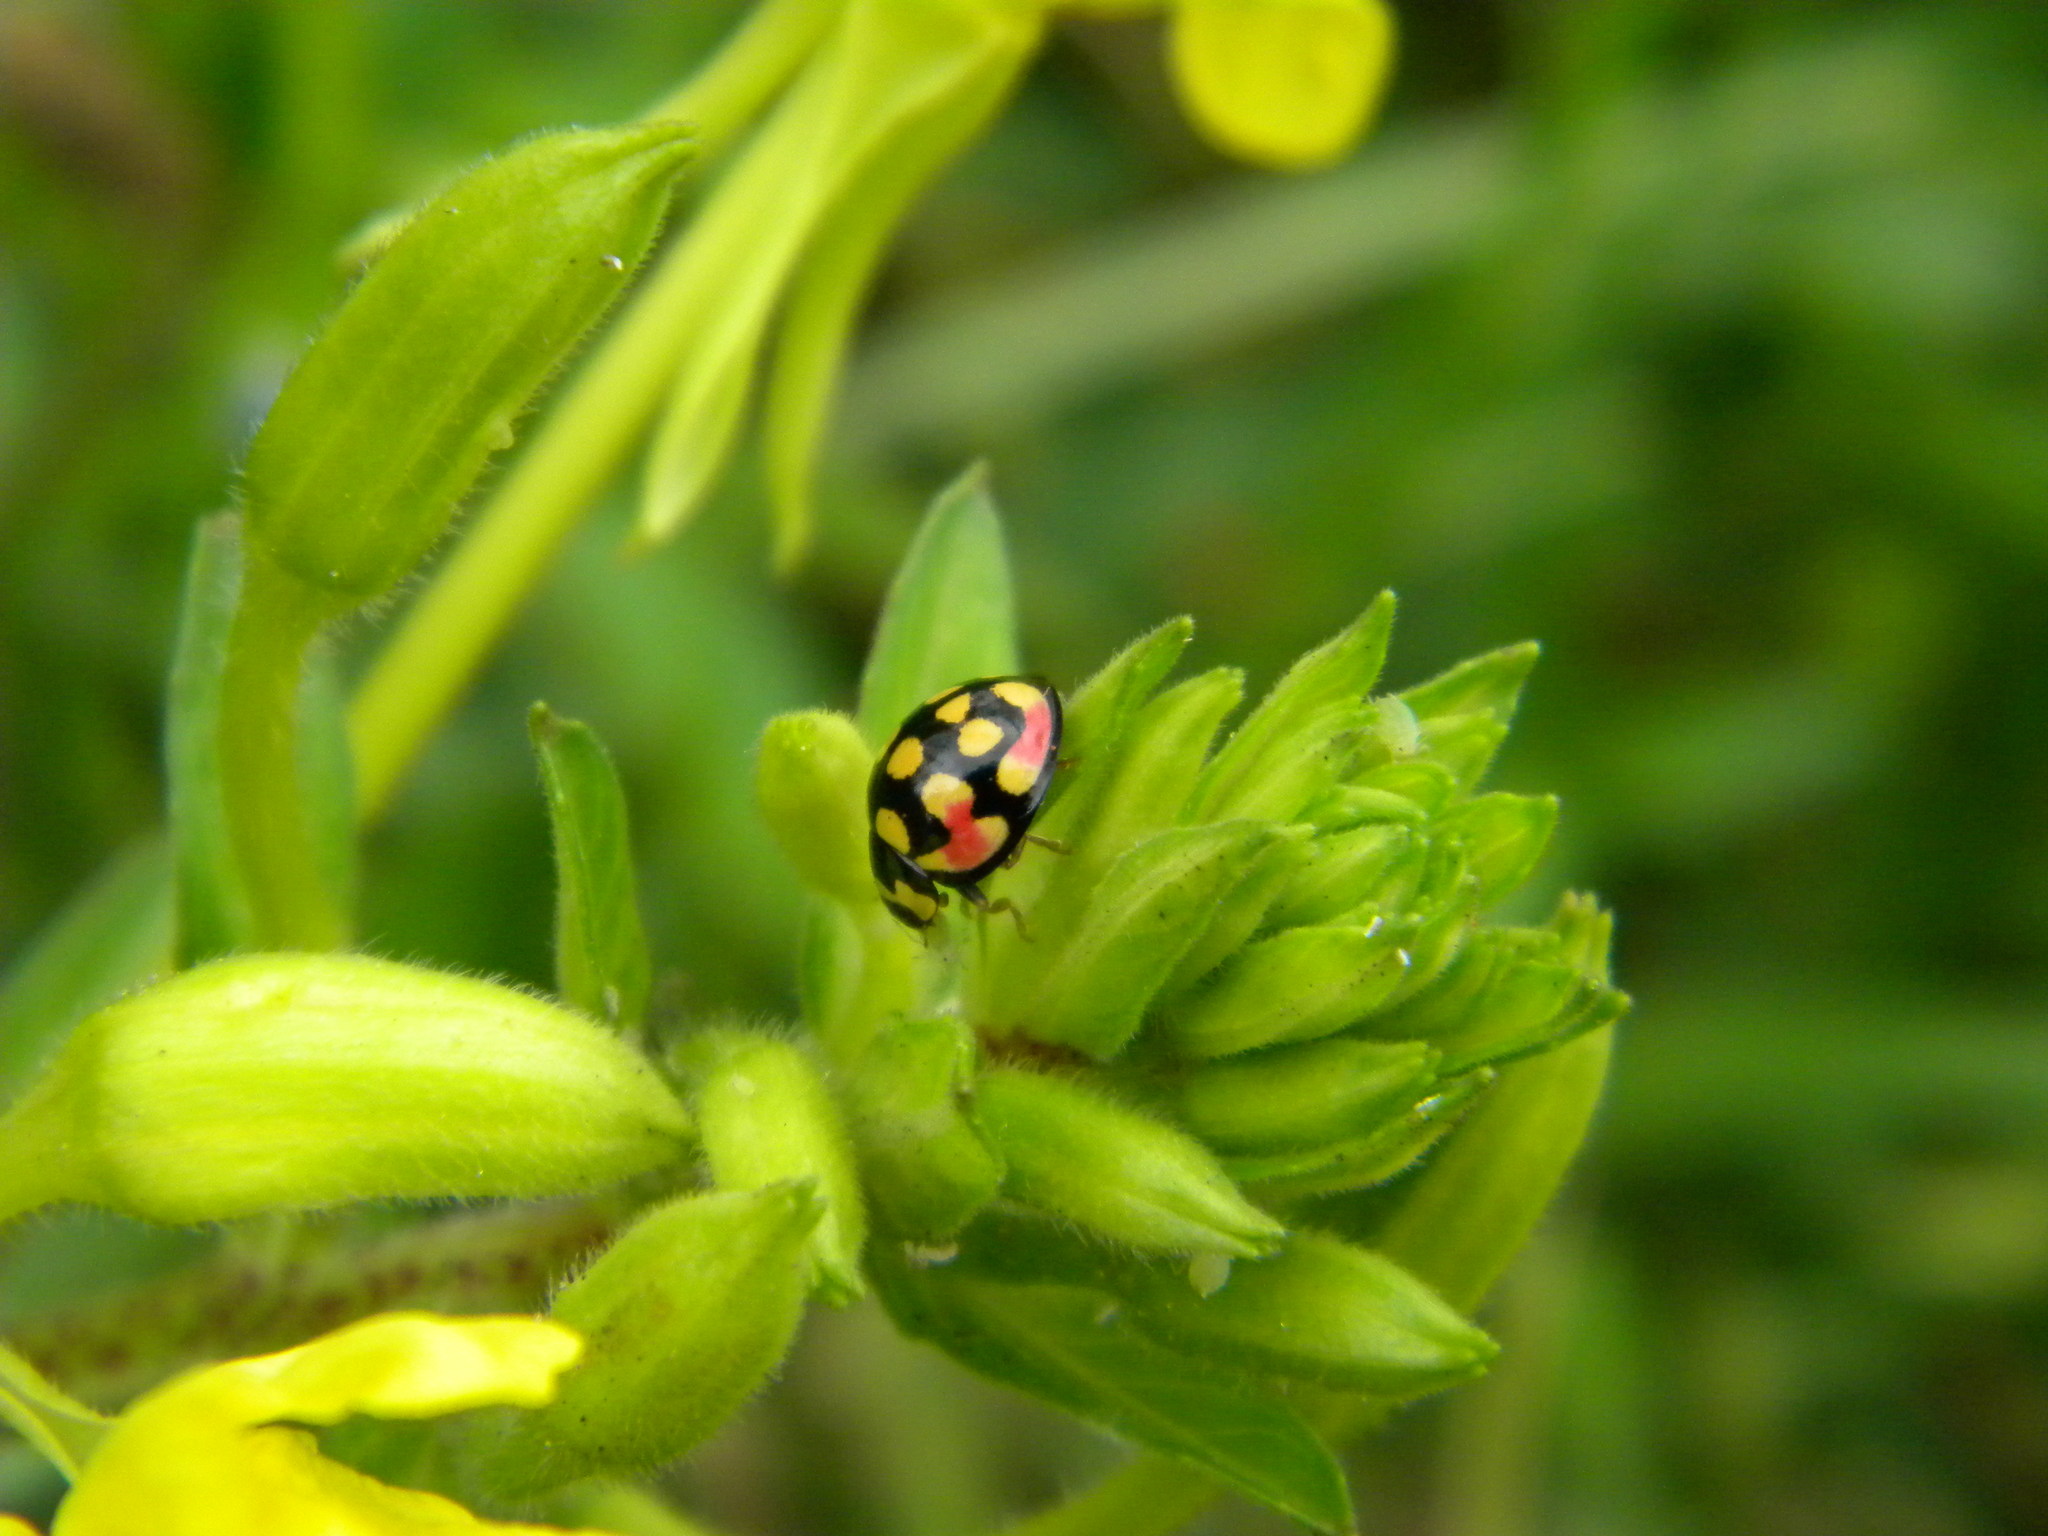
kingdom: Animalia
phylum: Arthropoda
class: Insecta
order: Coleoptera
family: Coccinellidae
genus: Cheilomenes
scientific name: Cheilomenes sulphurea
